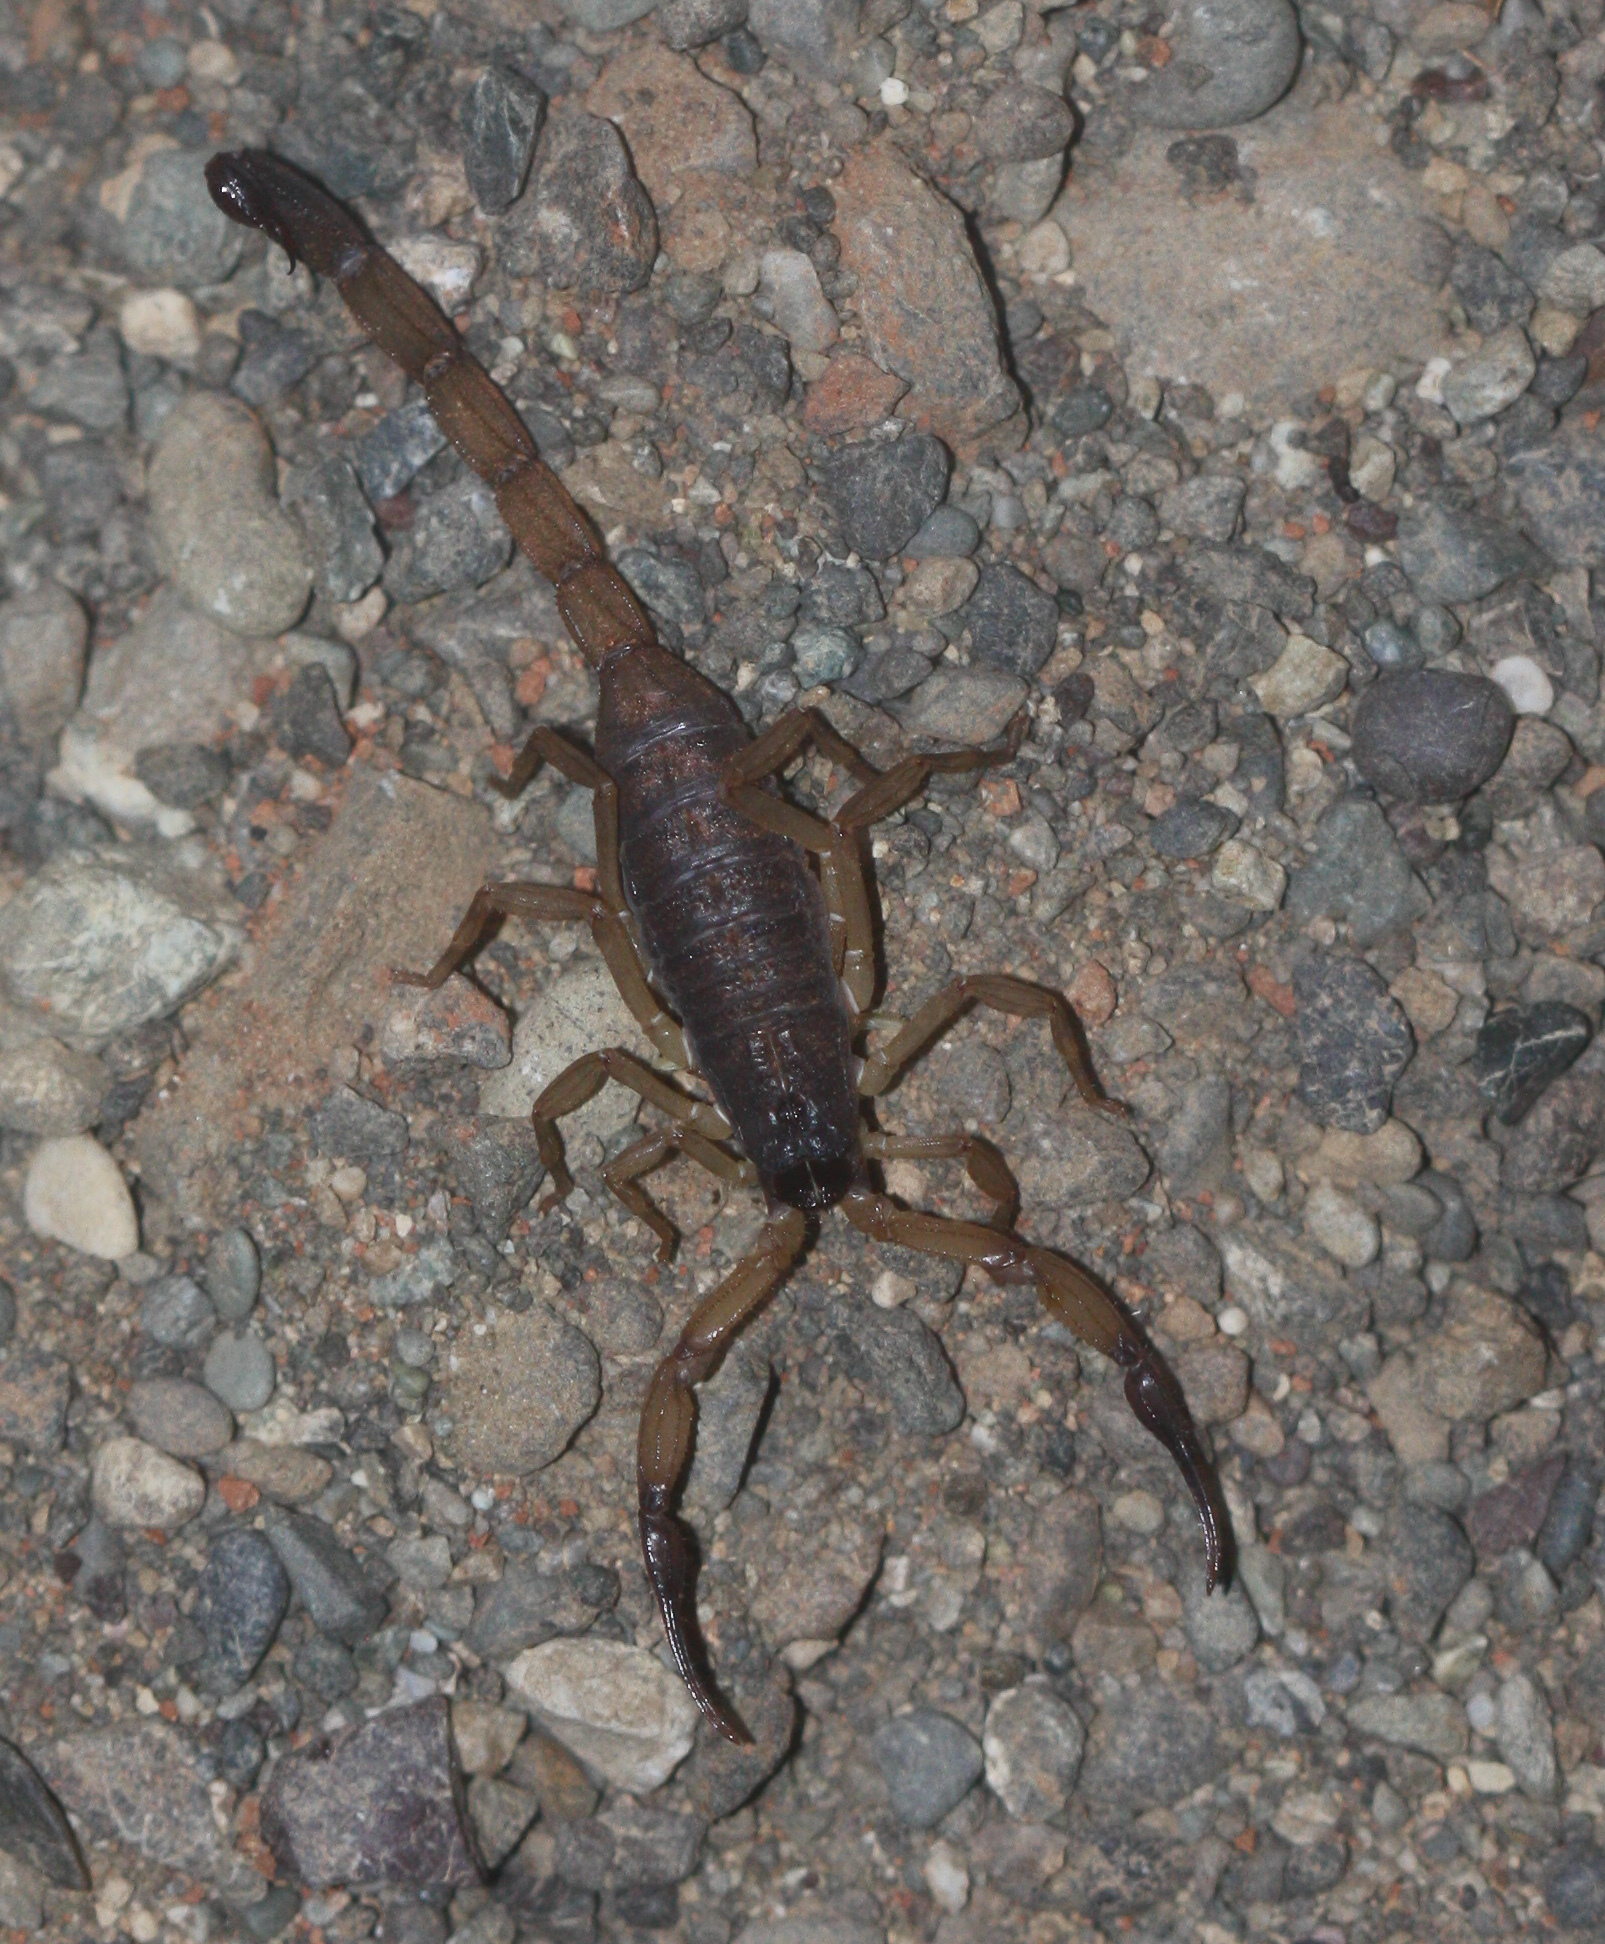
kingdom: Animalia
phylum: Arthropoda
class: Arachnida
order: Scorpiones
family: Buthidae
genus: Centruroides
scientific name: Centruroides bicolor
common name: Scorpions
